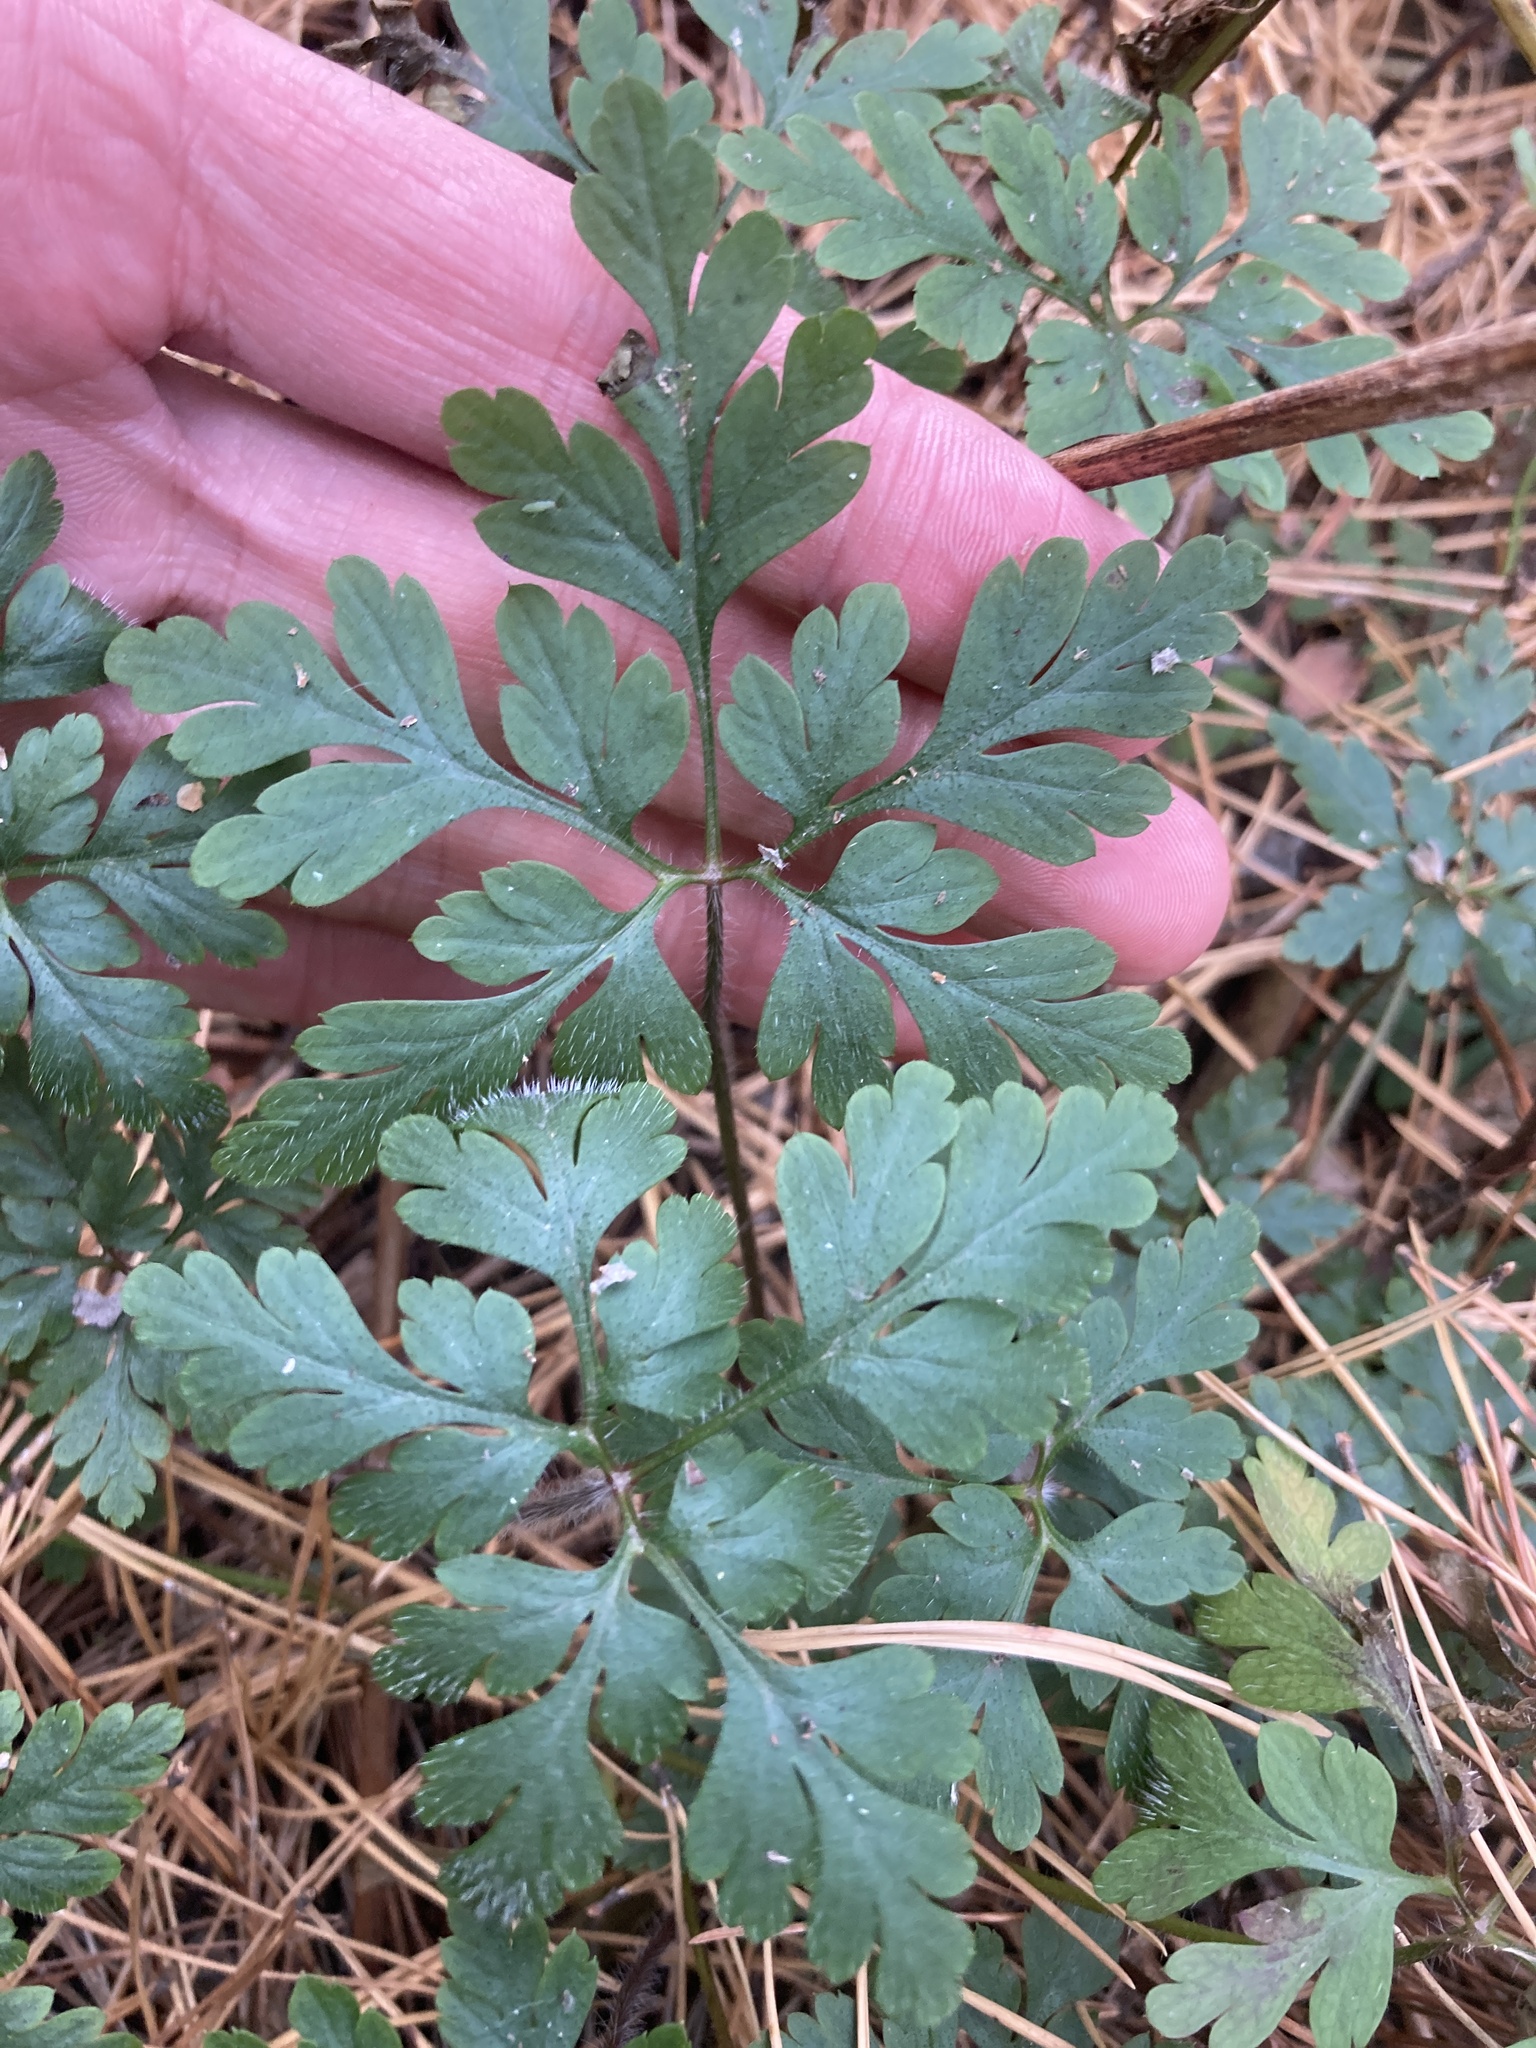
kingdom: Plantae
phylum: Tracheophyta
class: Magnoliopsida
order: Geraniales
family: Geraniaceae
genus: Geranium
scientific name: Geranium robertianum
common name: Herb-robert
